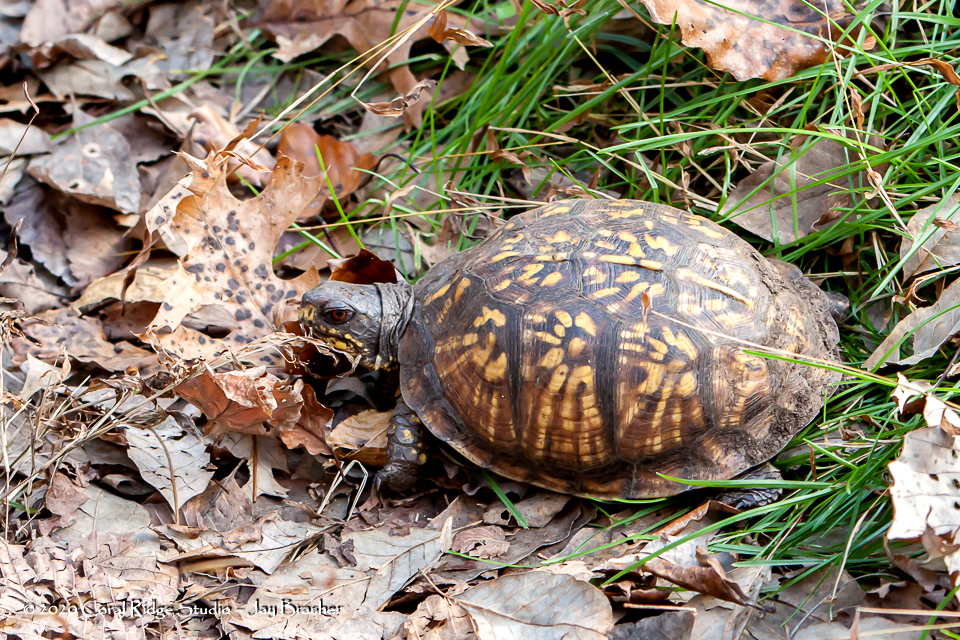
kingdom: Animalia
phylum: Chordata
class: Testudines
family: Emydidae
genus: Terrapene
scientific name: Terrapene carolina
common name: Common box turtle
